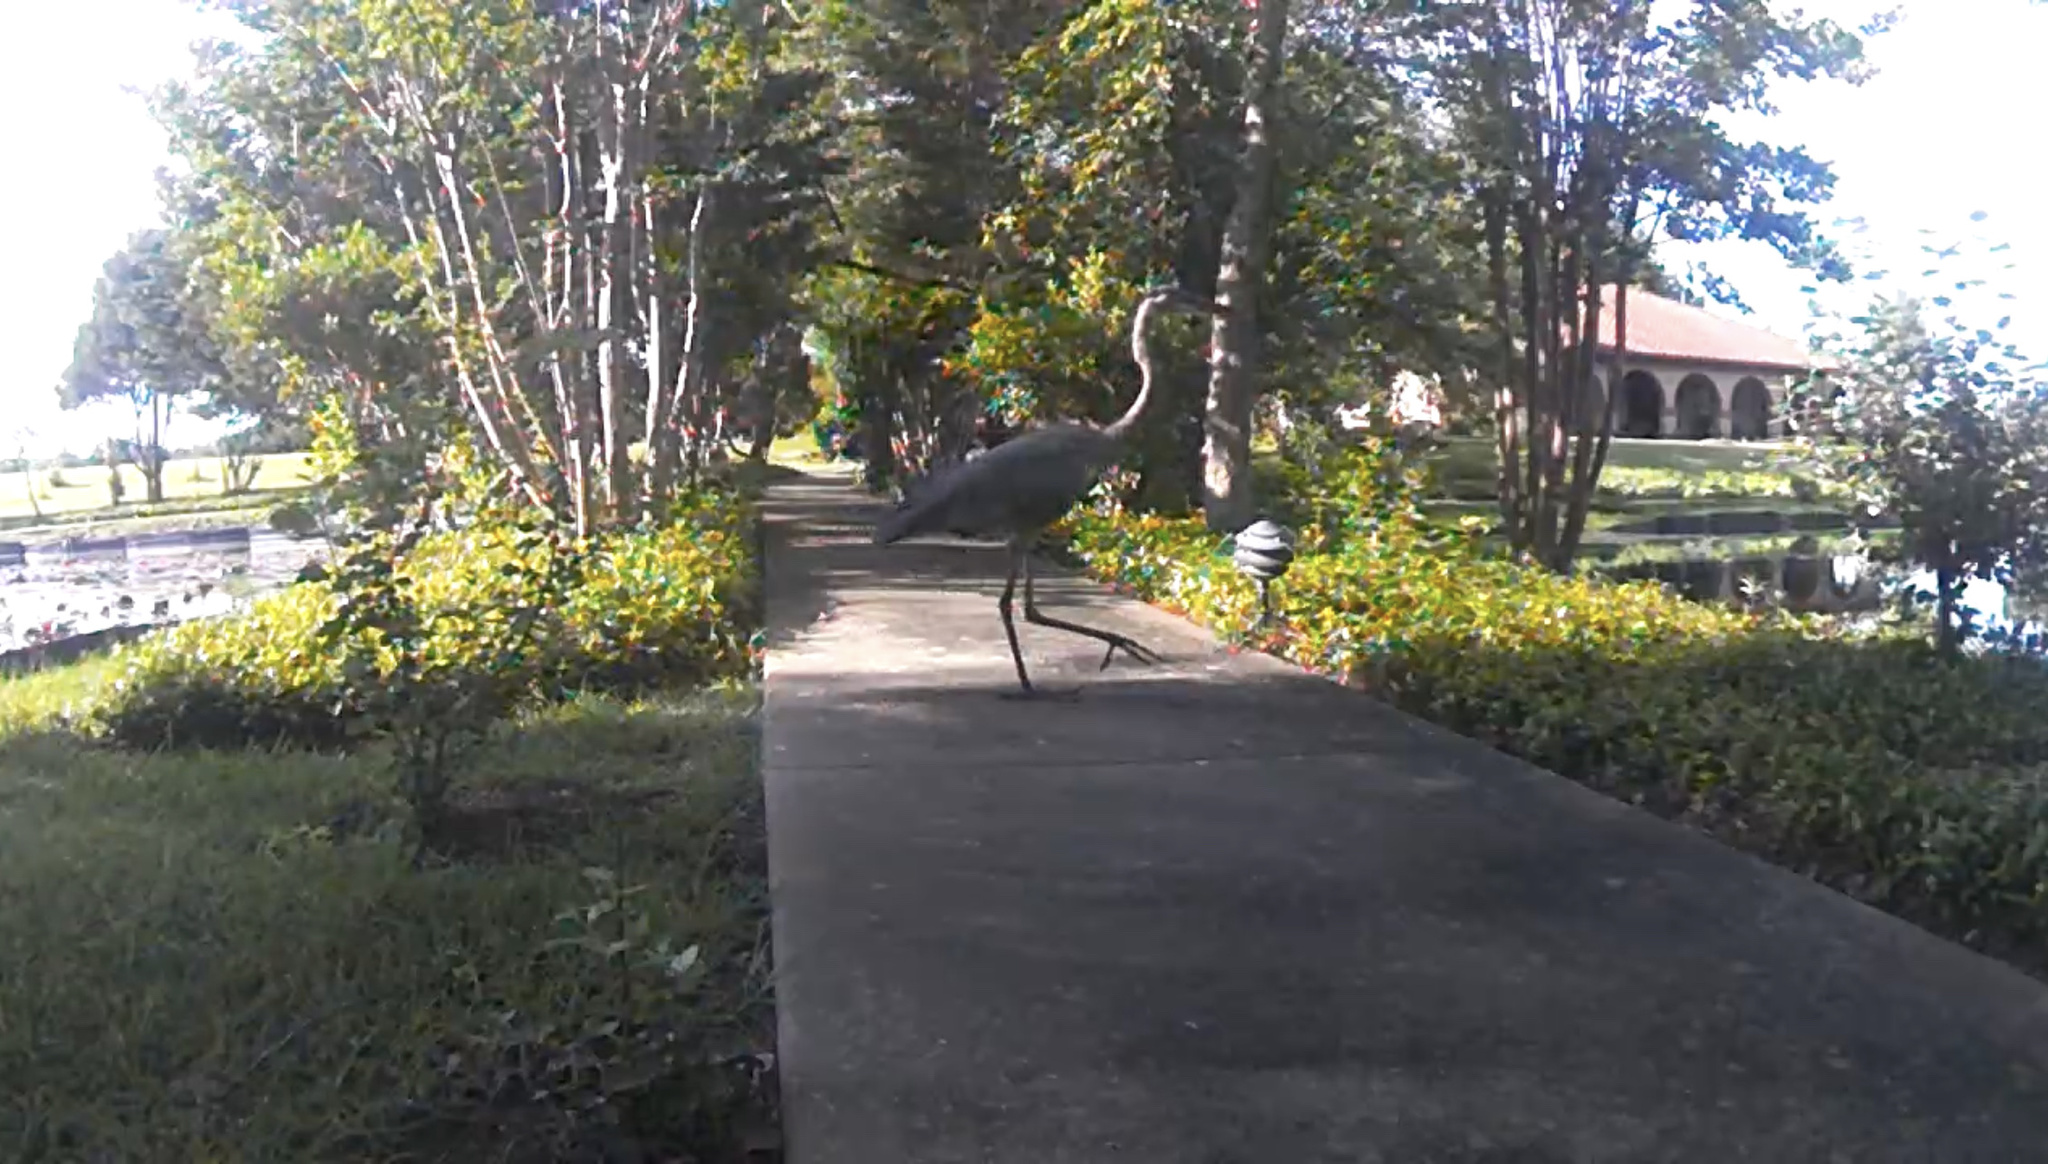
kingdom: Animalia
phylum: Chordata
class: Aves
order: Pelecaniformes
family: Ardeidae
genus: Ardea
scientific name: Ardea herodias
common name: Great blue heron
